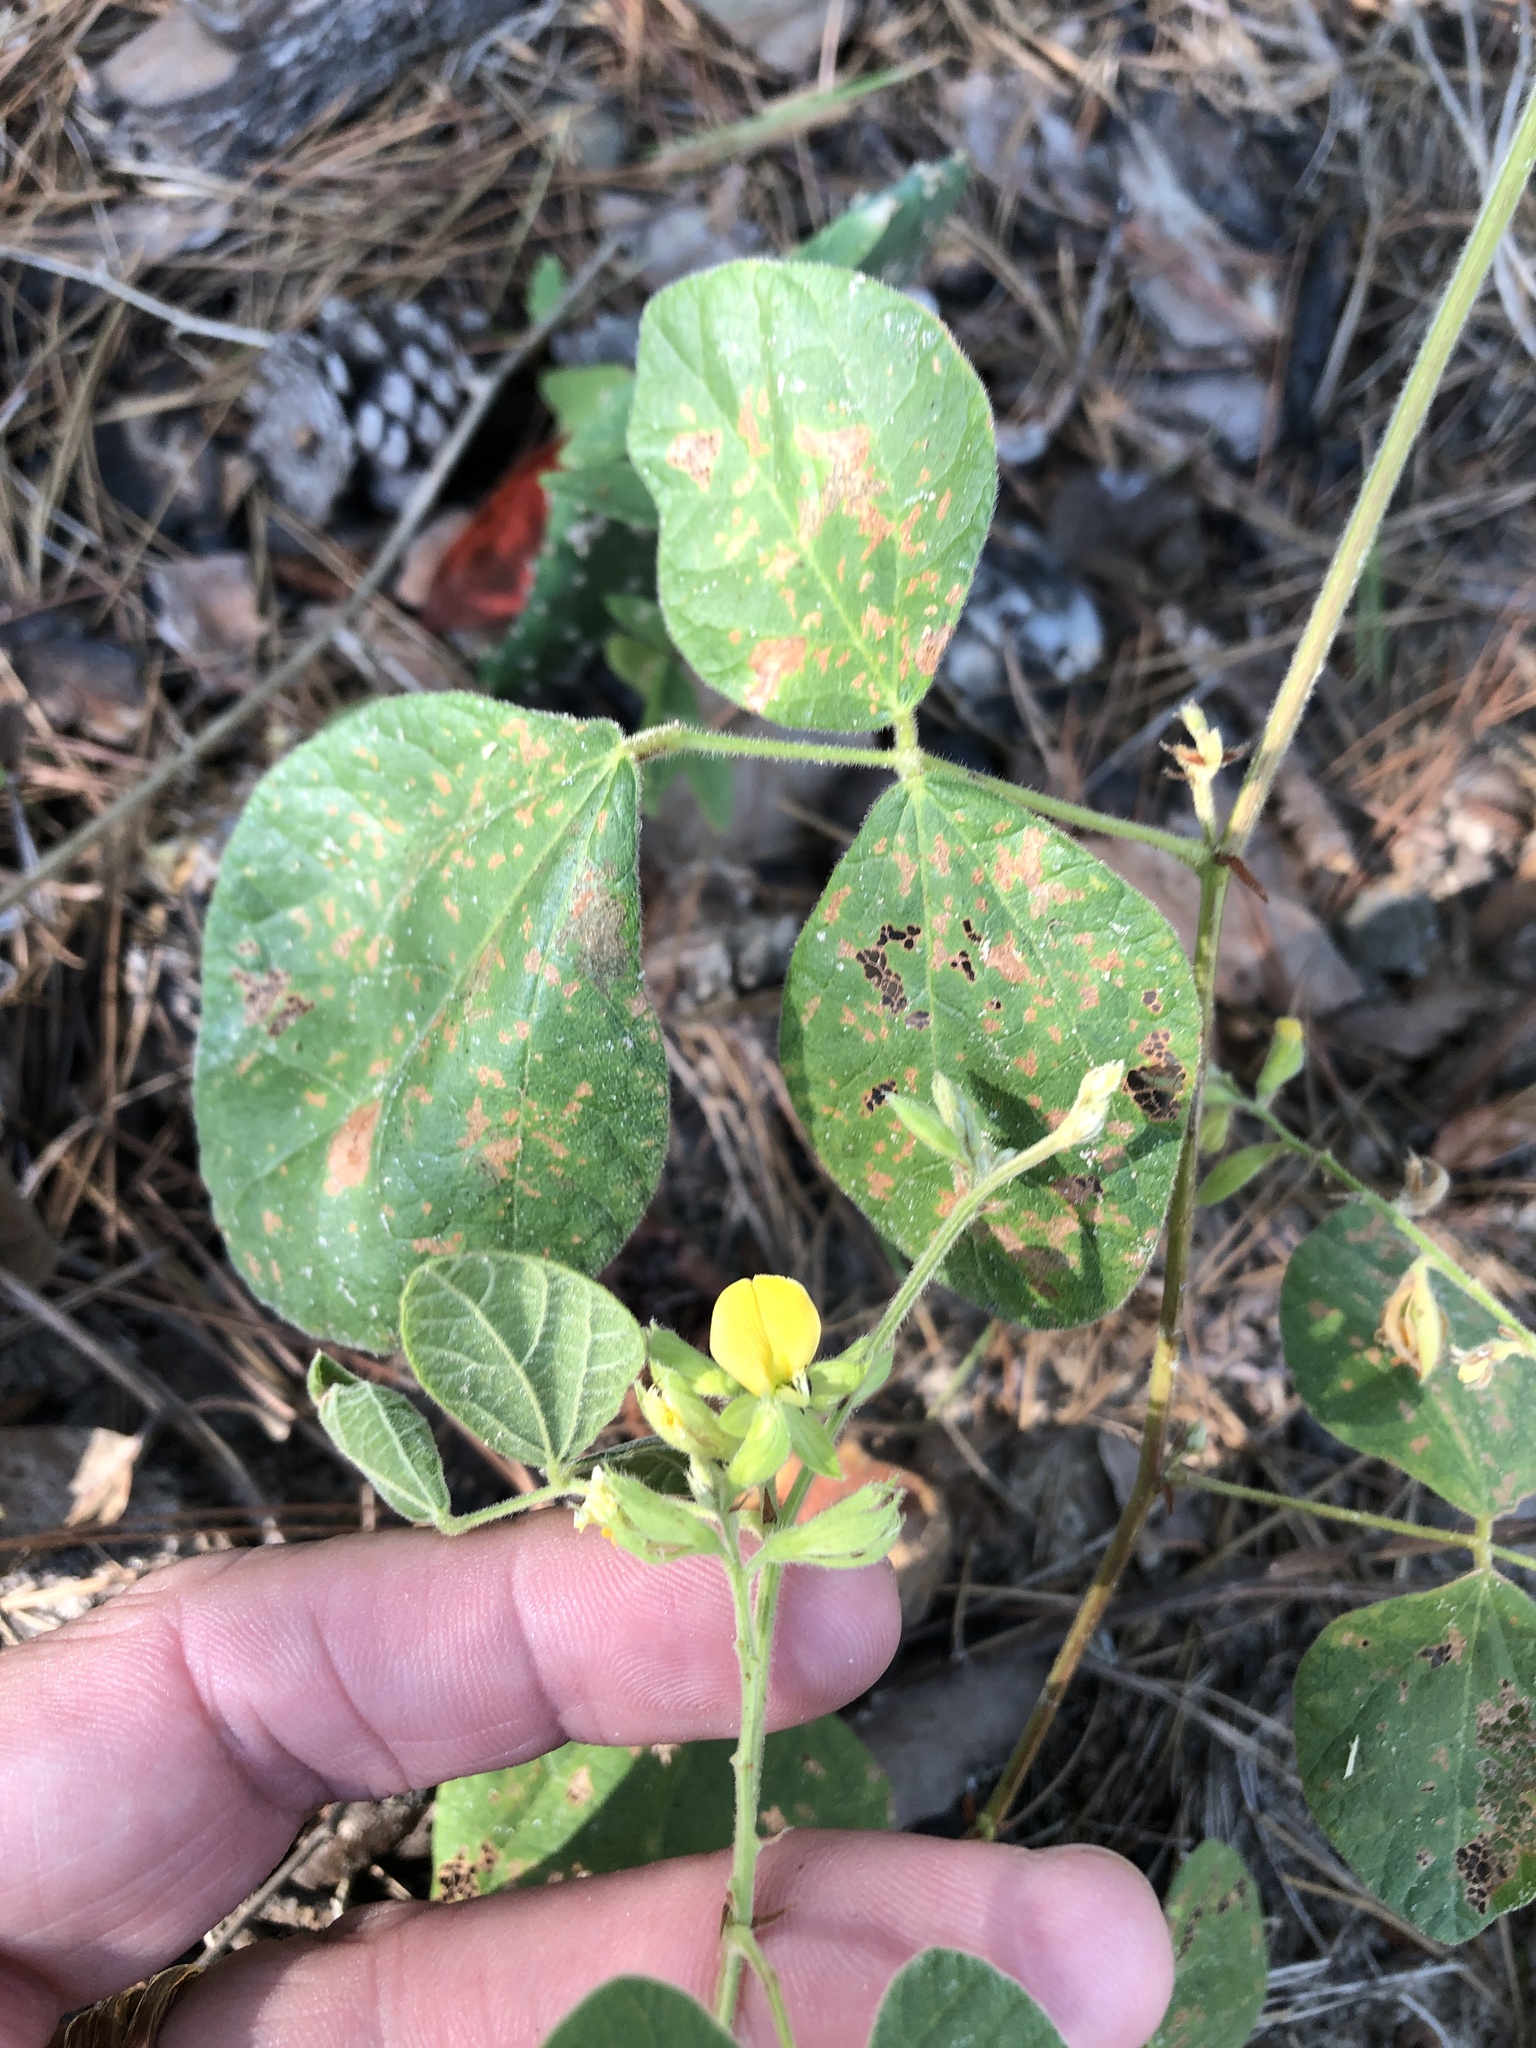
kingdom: Plantae
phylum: Tracheophyta
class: Magnoliopsida
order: Fabales
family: Fabaceae
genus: Rhynchosia
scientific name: Rhynchosia latifolia
